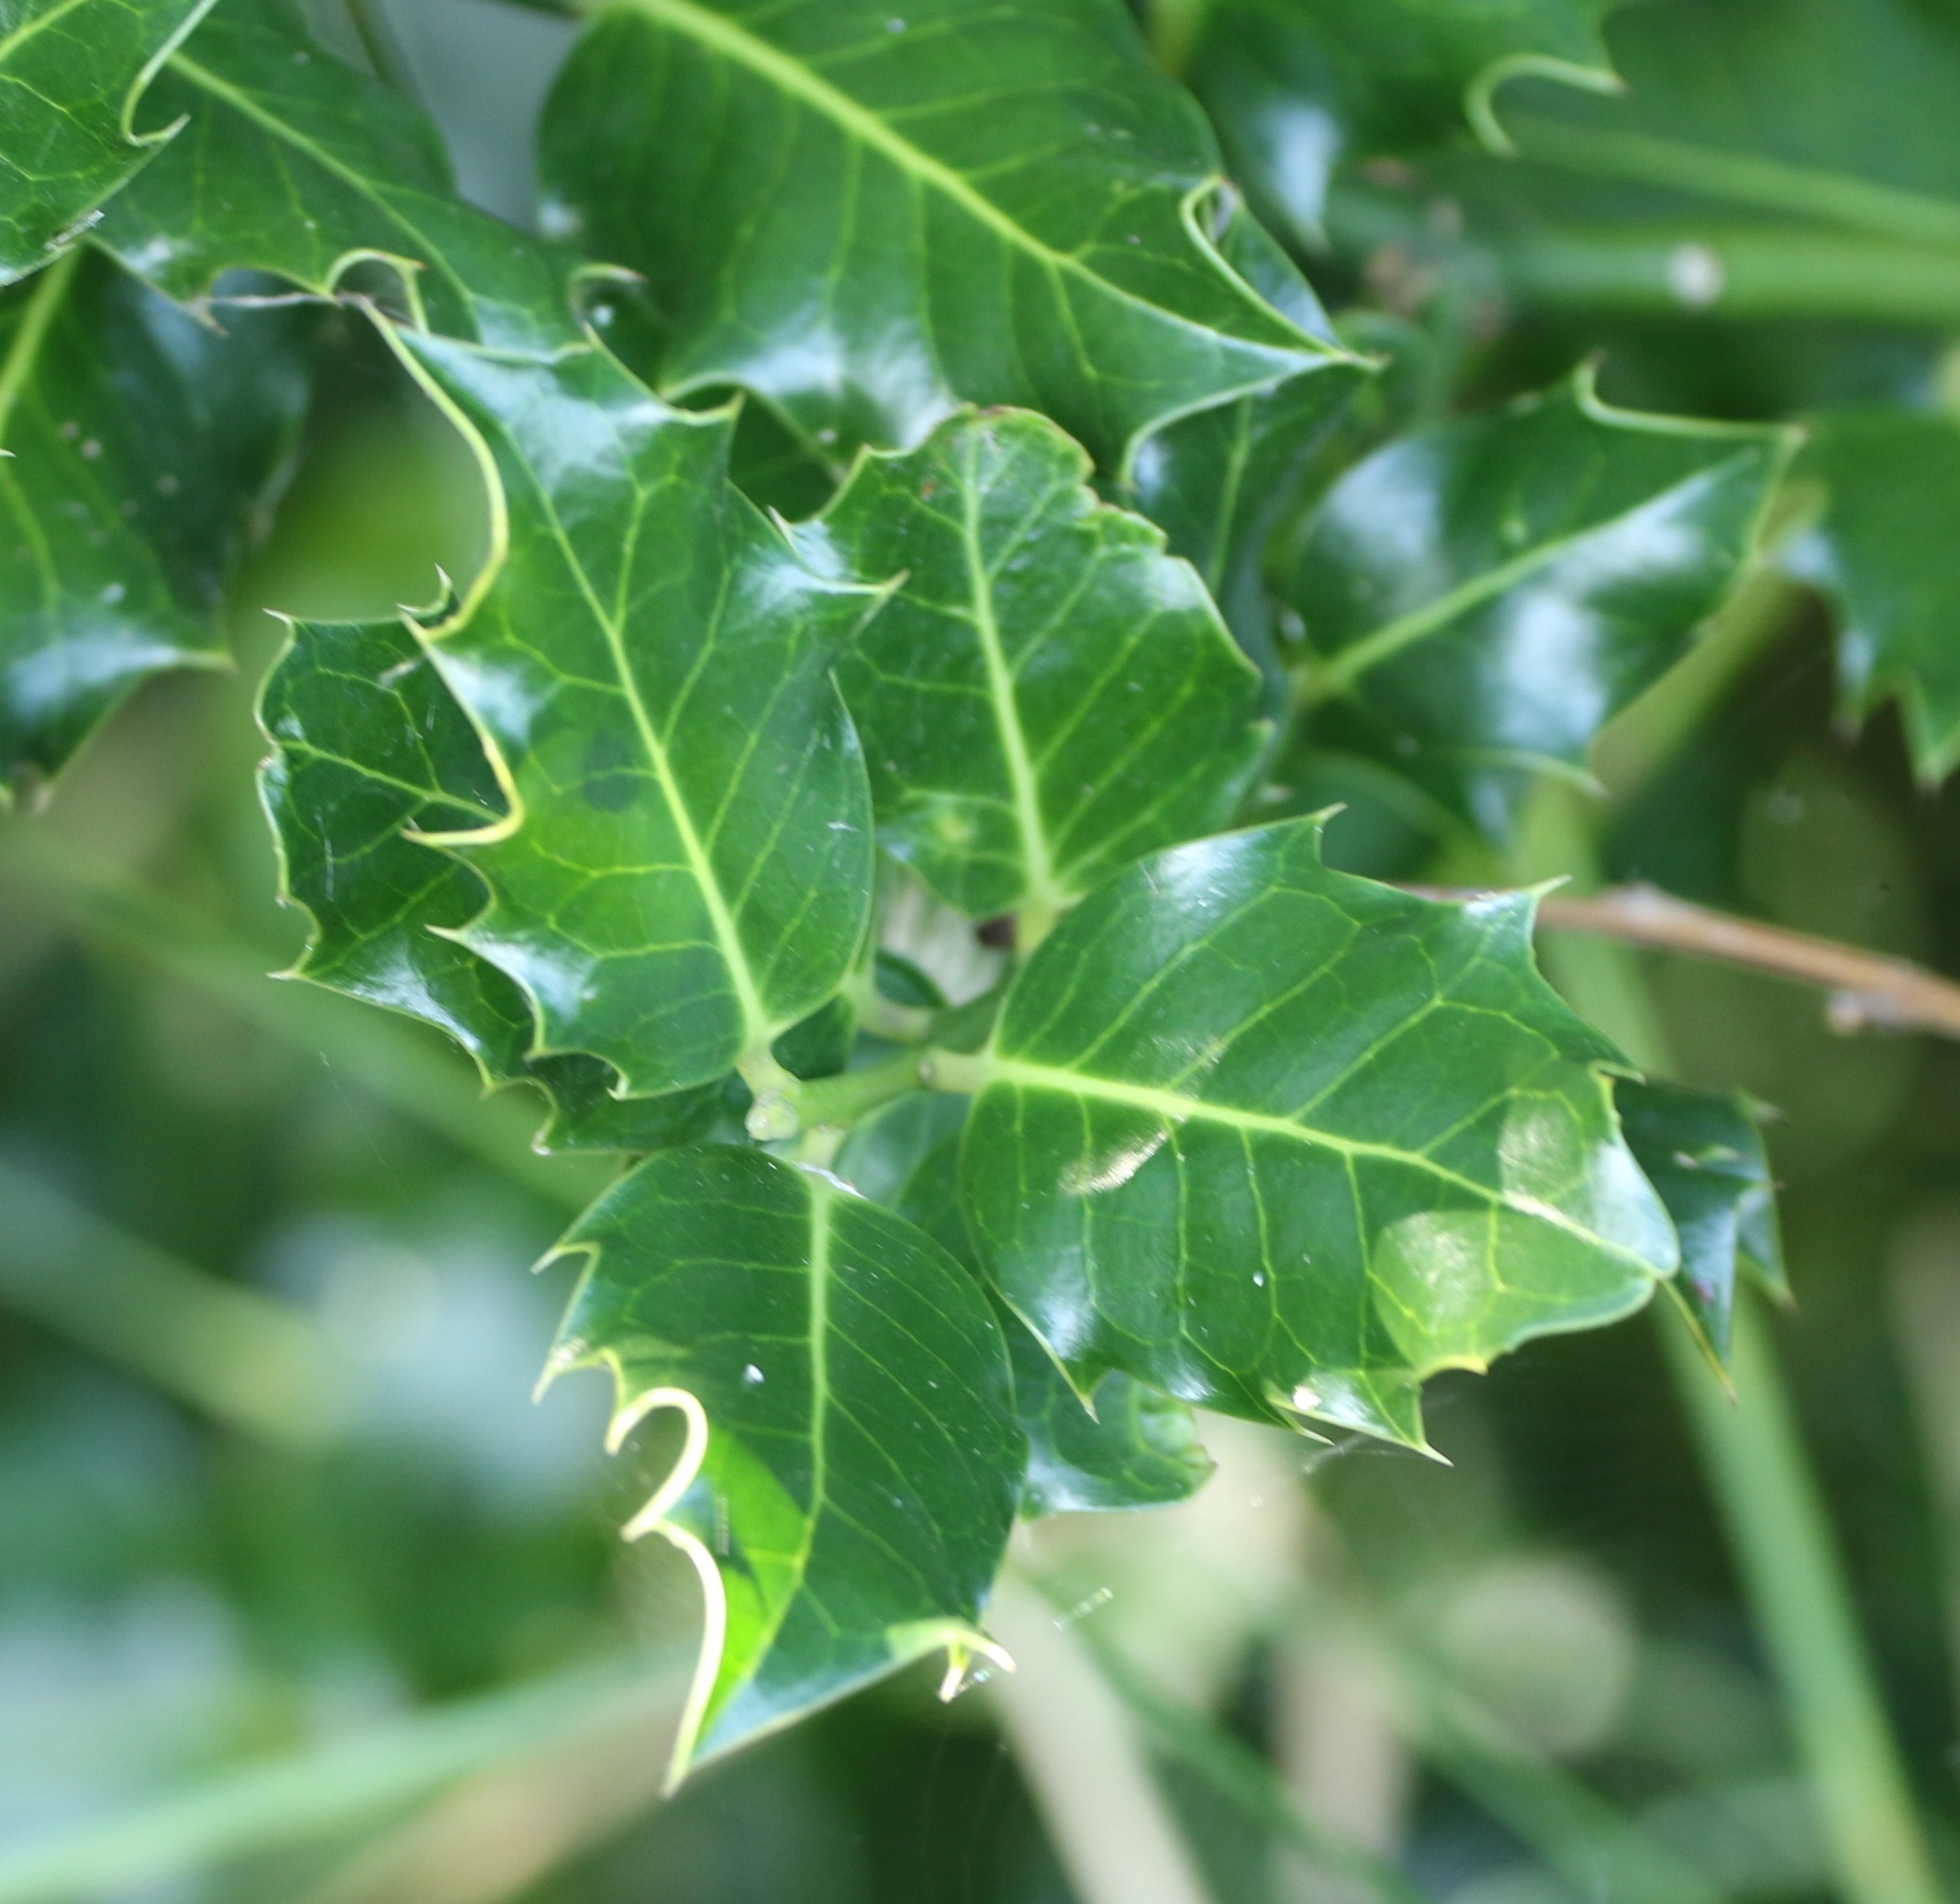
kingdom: Plantae
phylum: Tracheophyta
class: Magnoliopsida
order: Aquifoliales
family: Aquifoliaceae
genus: Ilex
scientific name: Ilex aquifolium
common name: English holly
